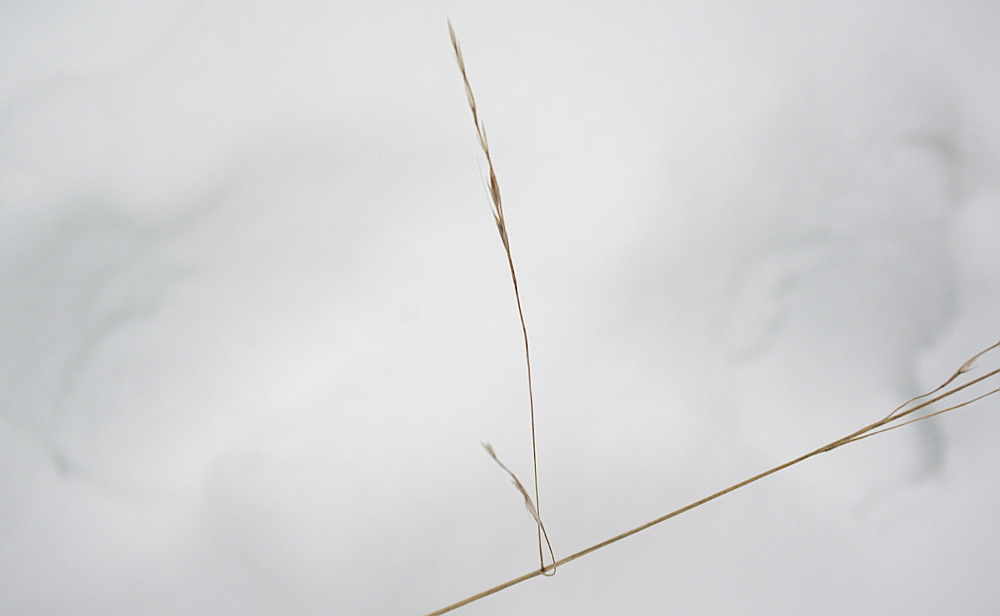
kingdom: Plantae
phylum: Tracheophyta
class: Liliopsida
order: Poales
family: Poaceae
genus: Lolium
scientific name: Lolium giganteum
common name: Giant fescue
